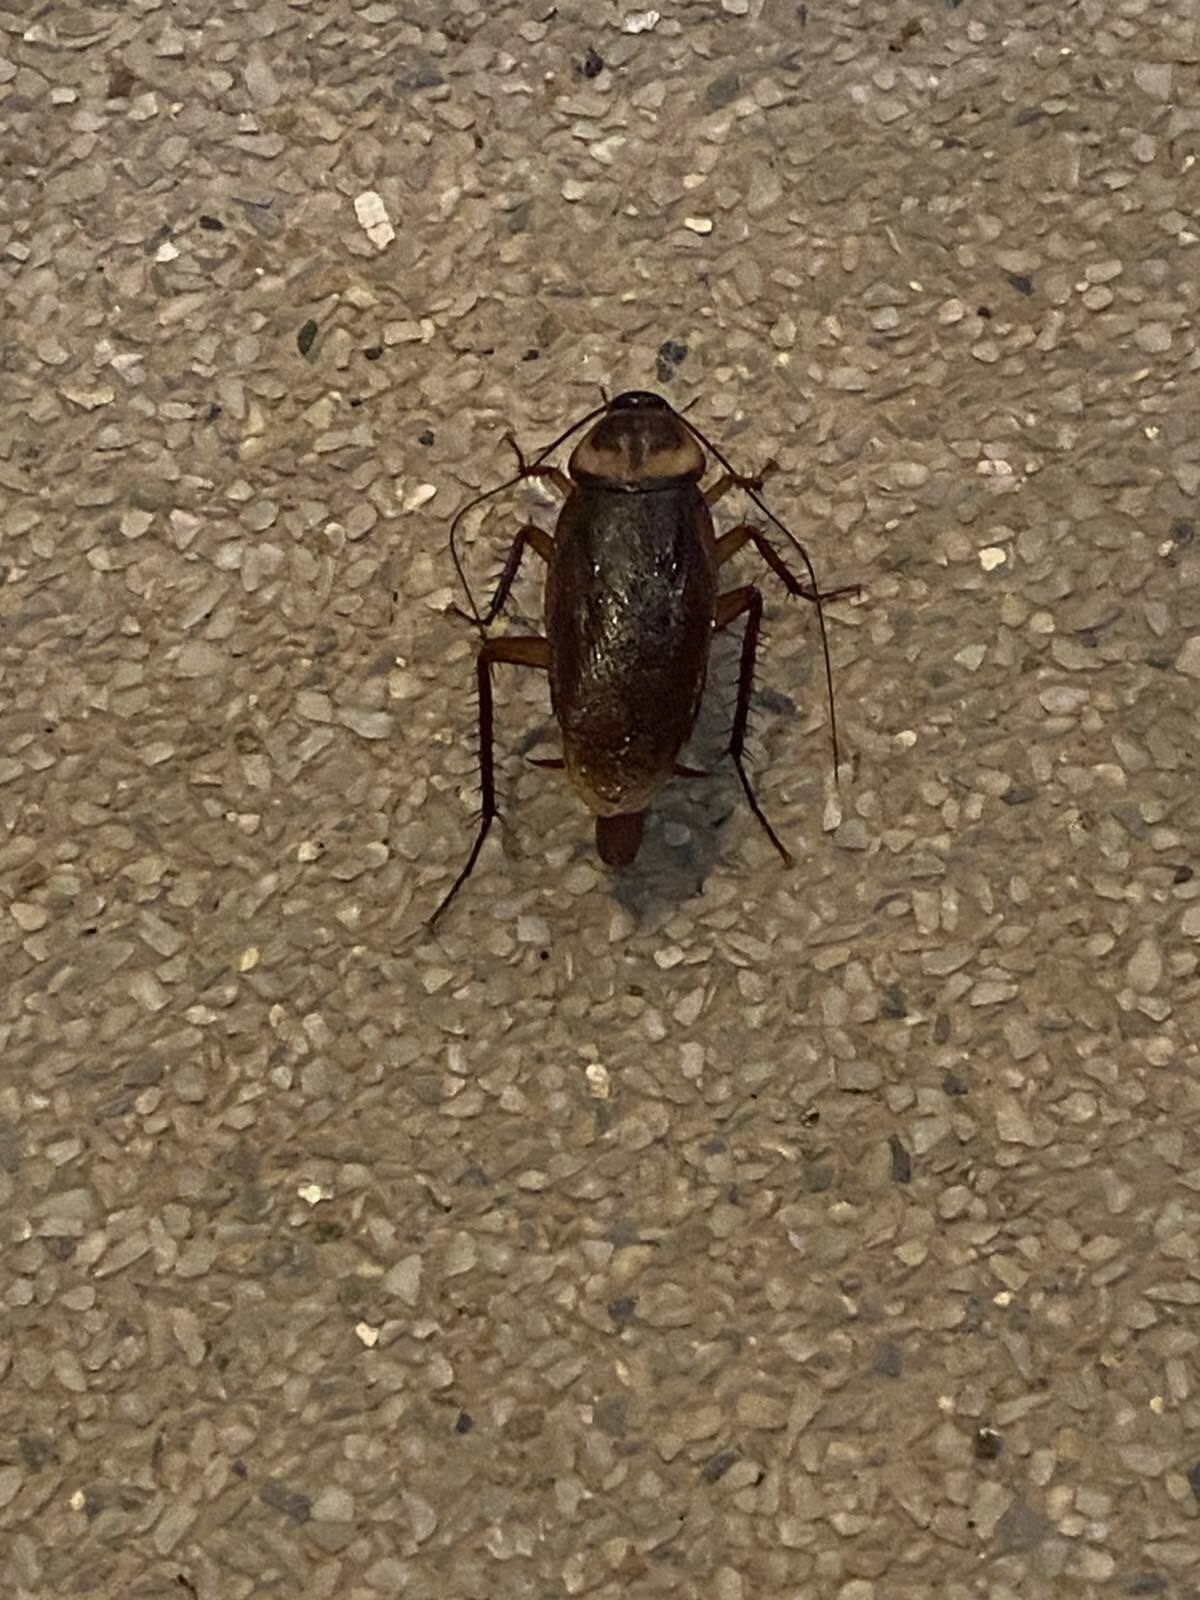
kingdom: Animalia
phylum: Arthropoda
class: Insecta
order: Blattodea
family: Blattidae
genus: Periplaneta
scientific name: Periplaneta americana
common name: American cockroach
